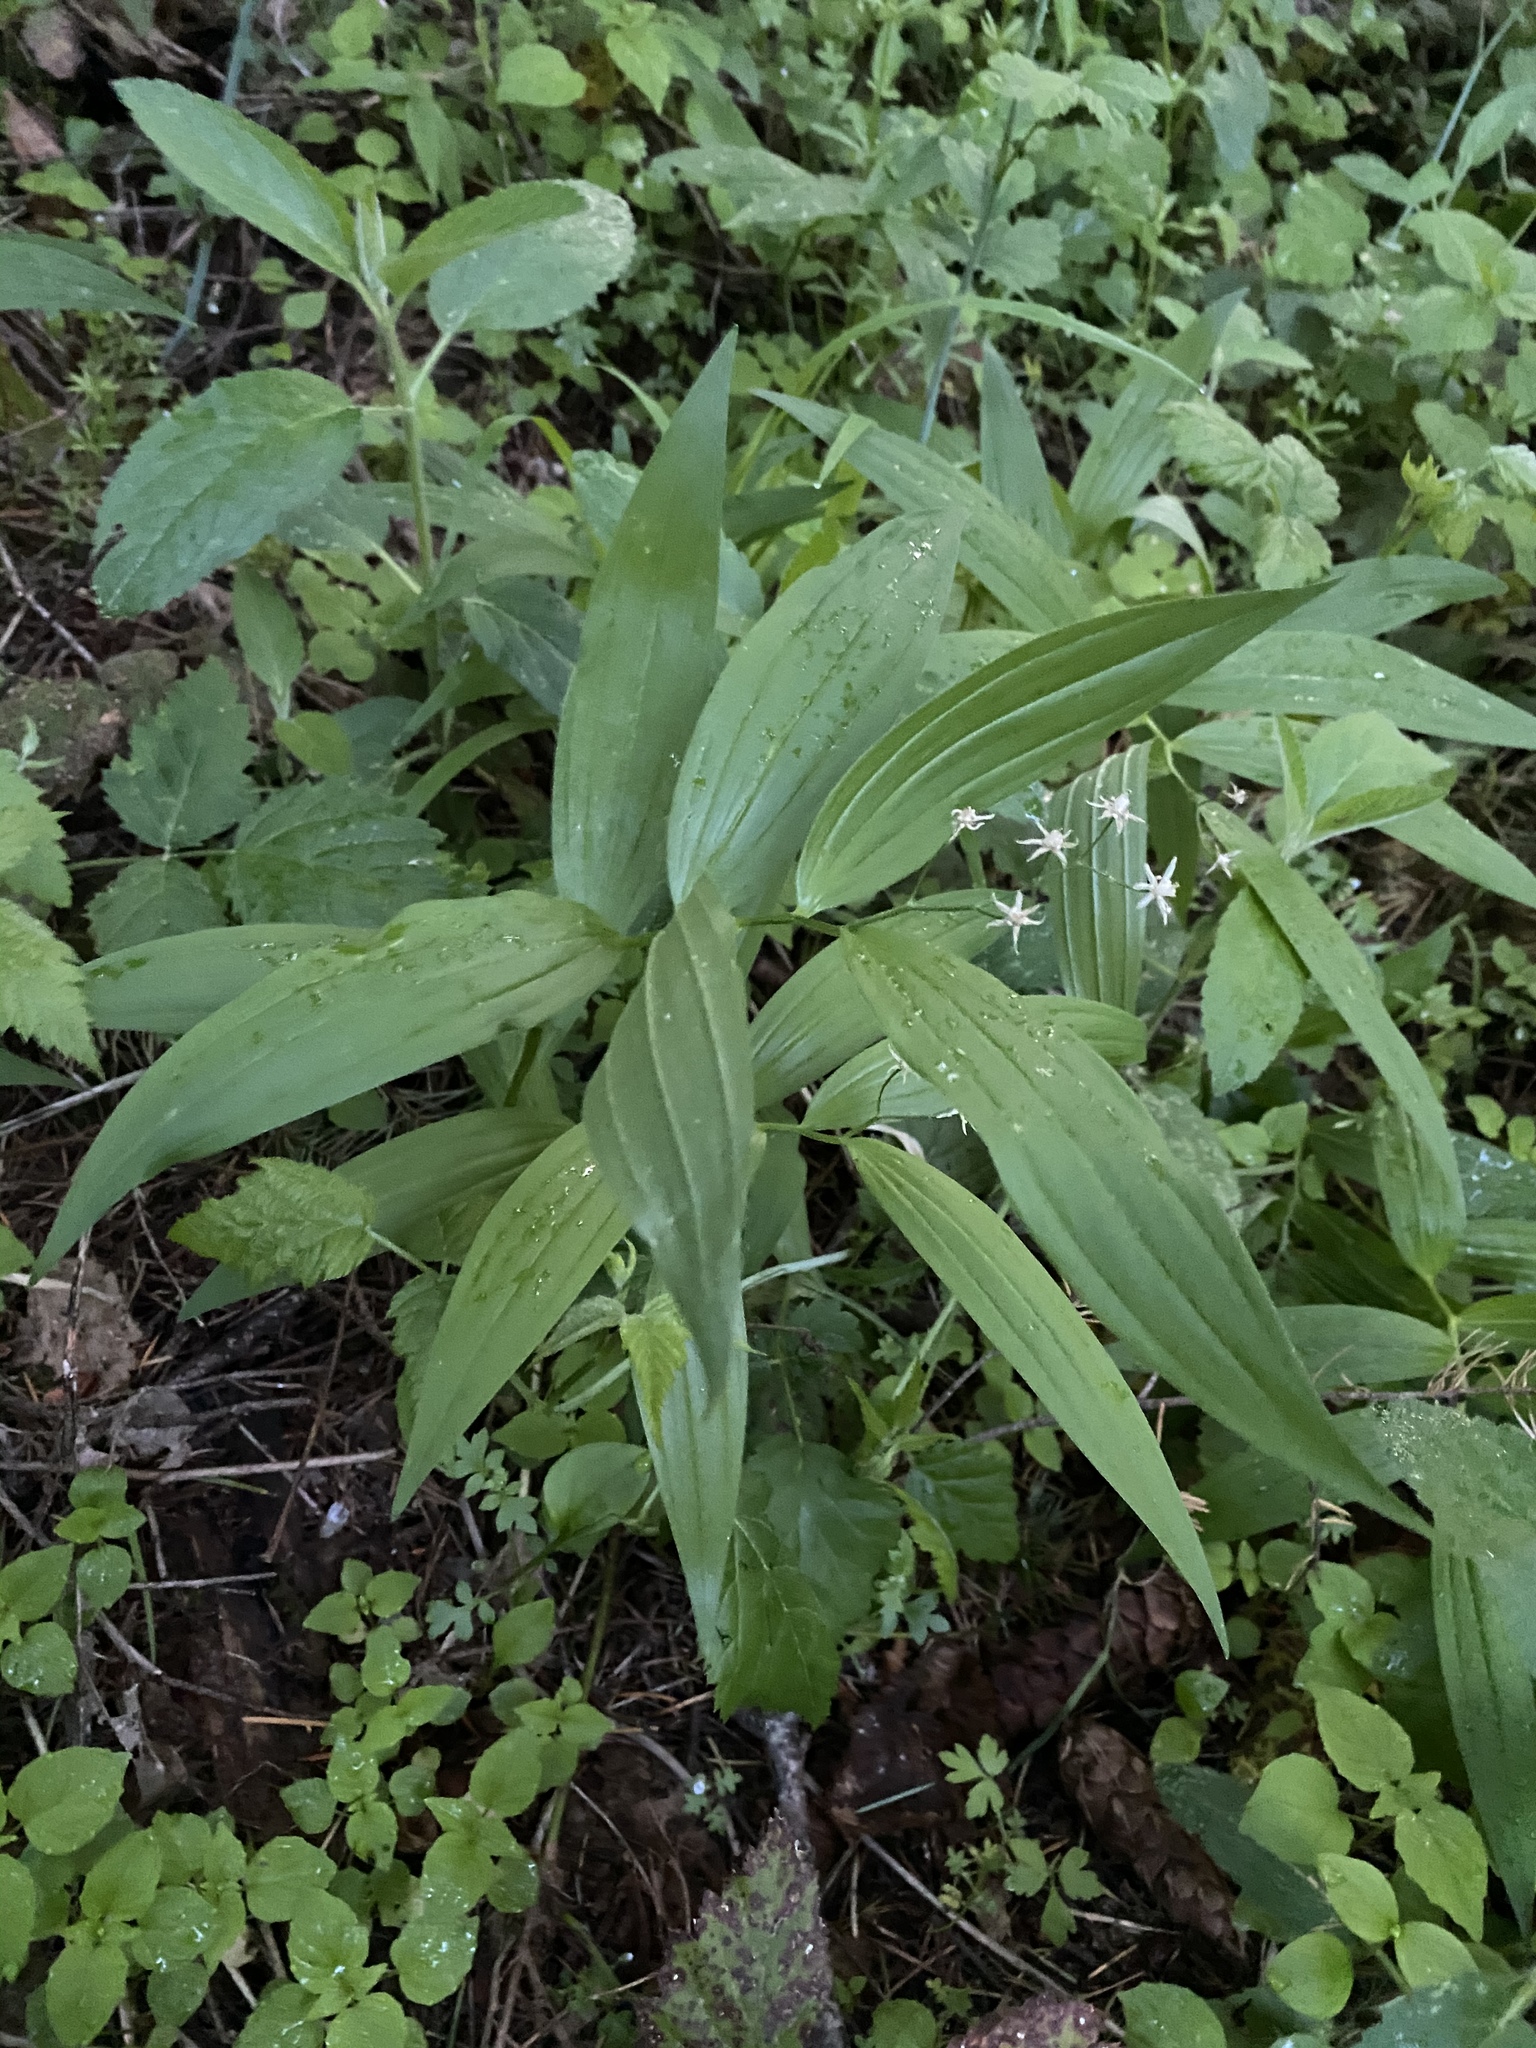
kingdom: Plantae
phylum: Tracheophyta
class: Liliopsida
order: Asparagales
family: Asparagaceae
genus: Maianthemum
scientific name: Maianthemum stellatum
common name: Little false solomon's seal
